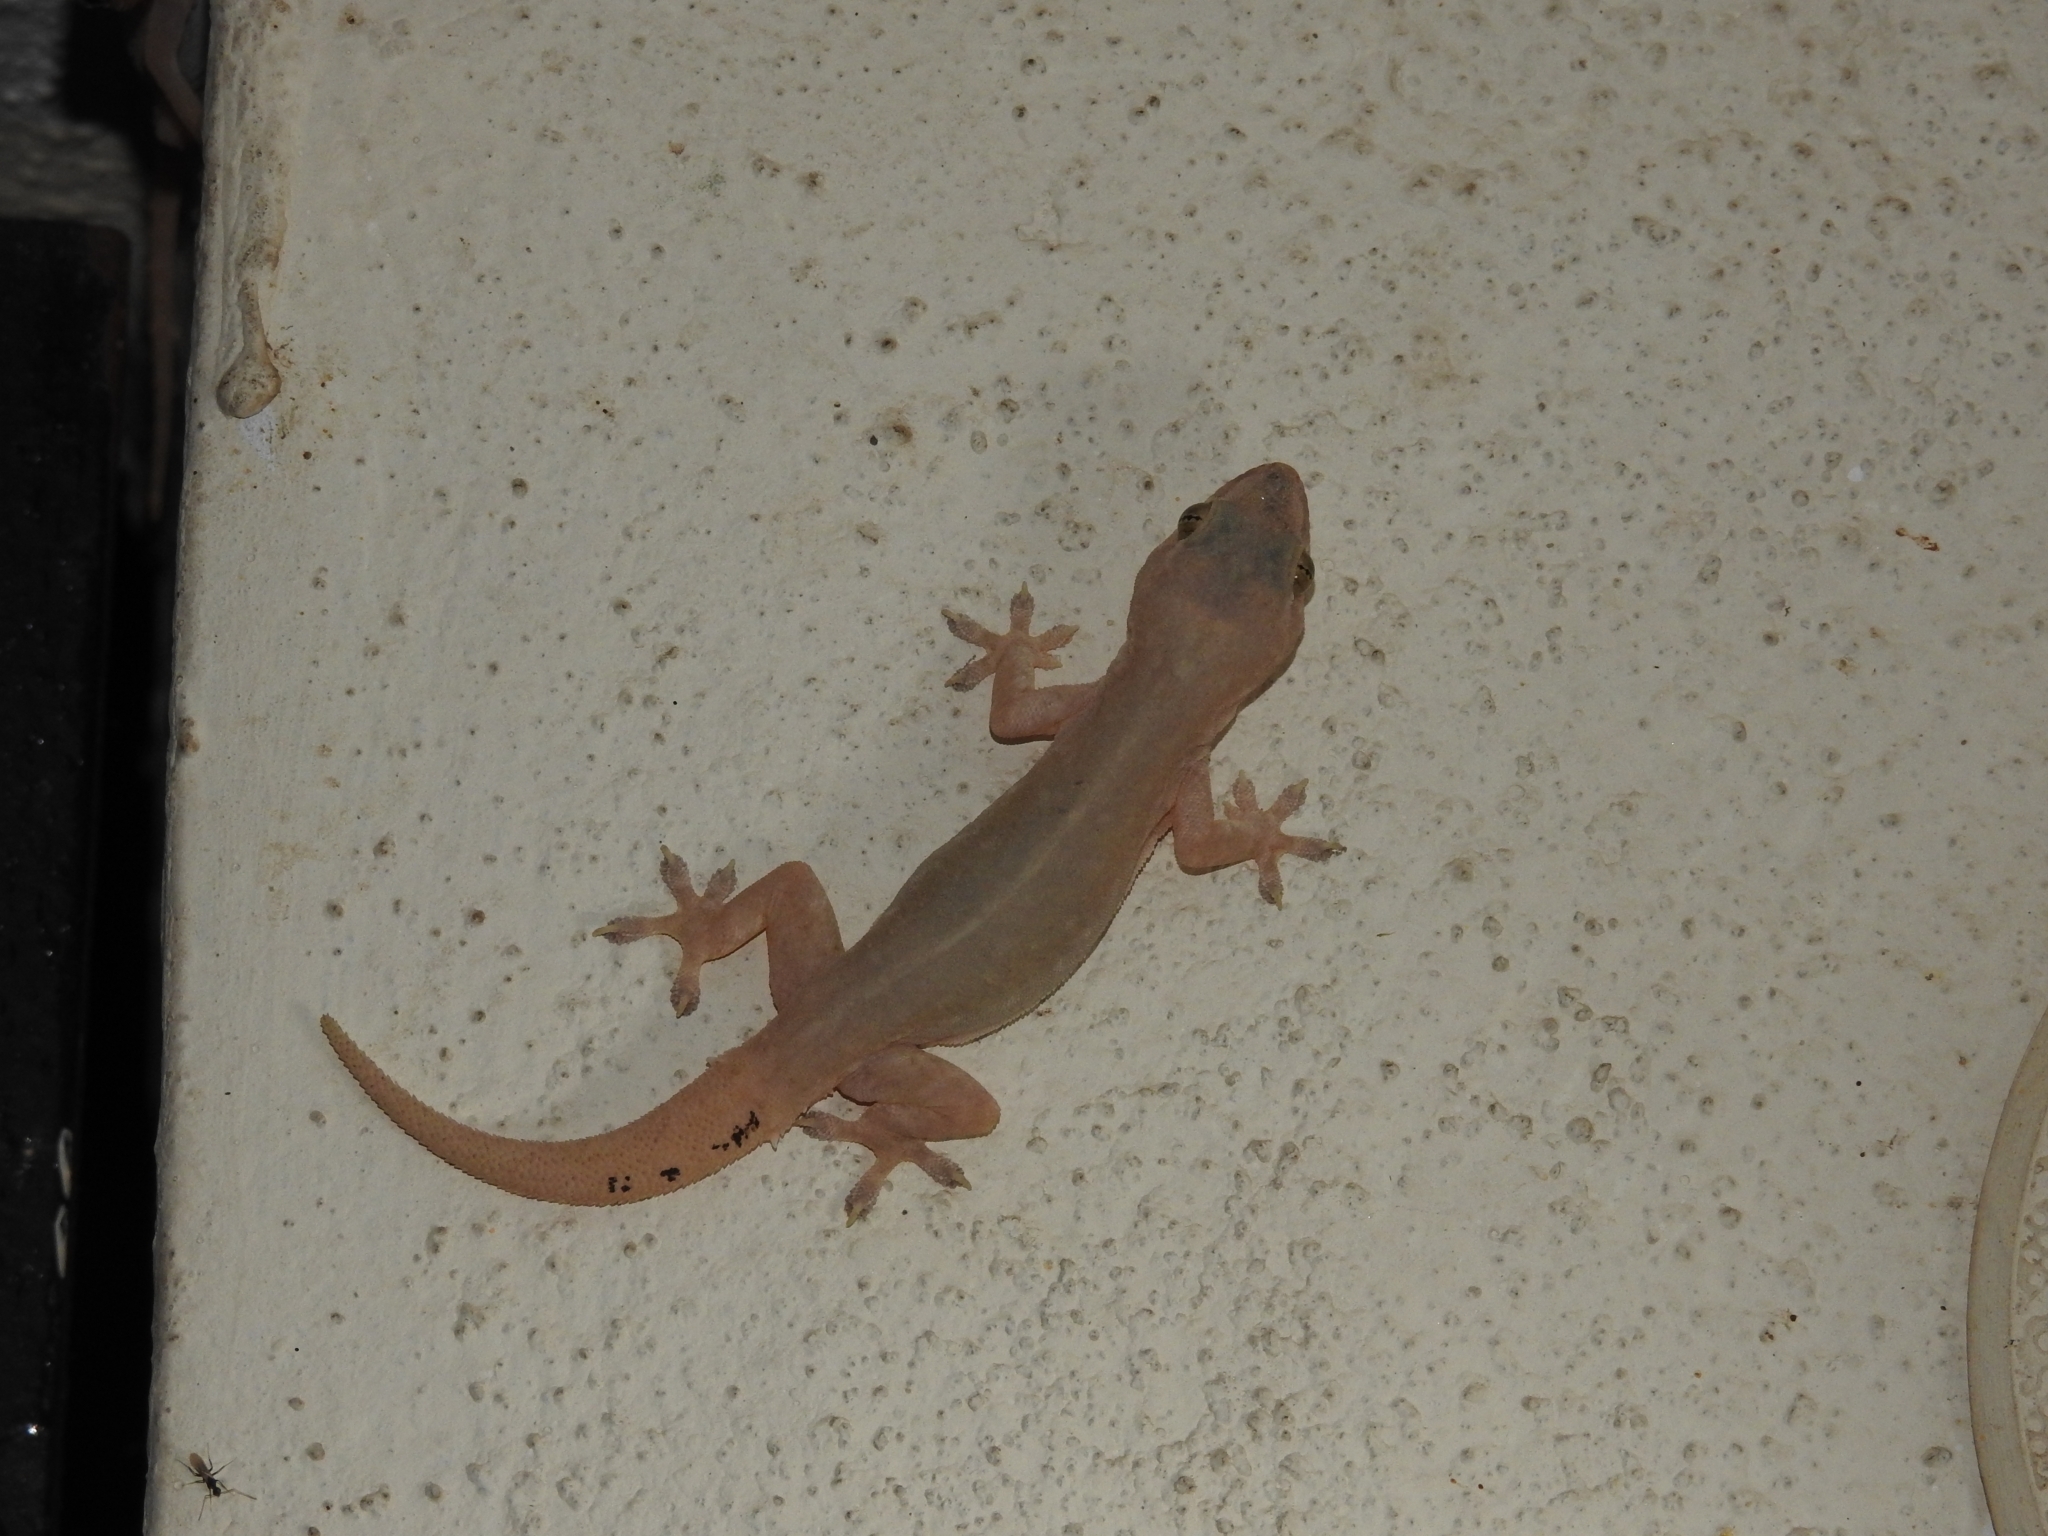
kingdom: Animalia
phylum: Chordata
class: Squamata
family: Gekkonidae
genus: Hemidactylus
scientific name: Hemidactylus frenatus
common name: Common house gecko
